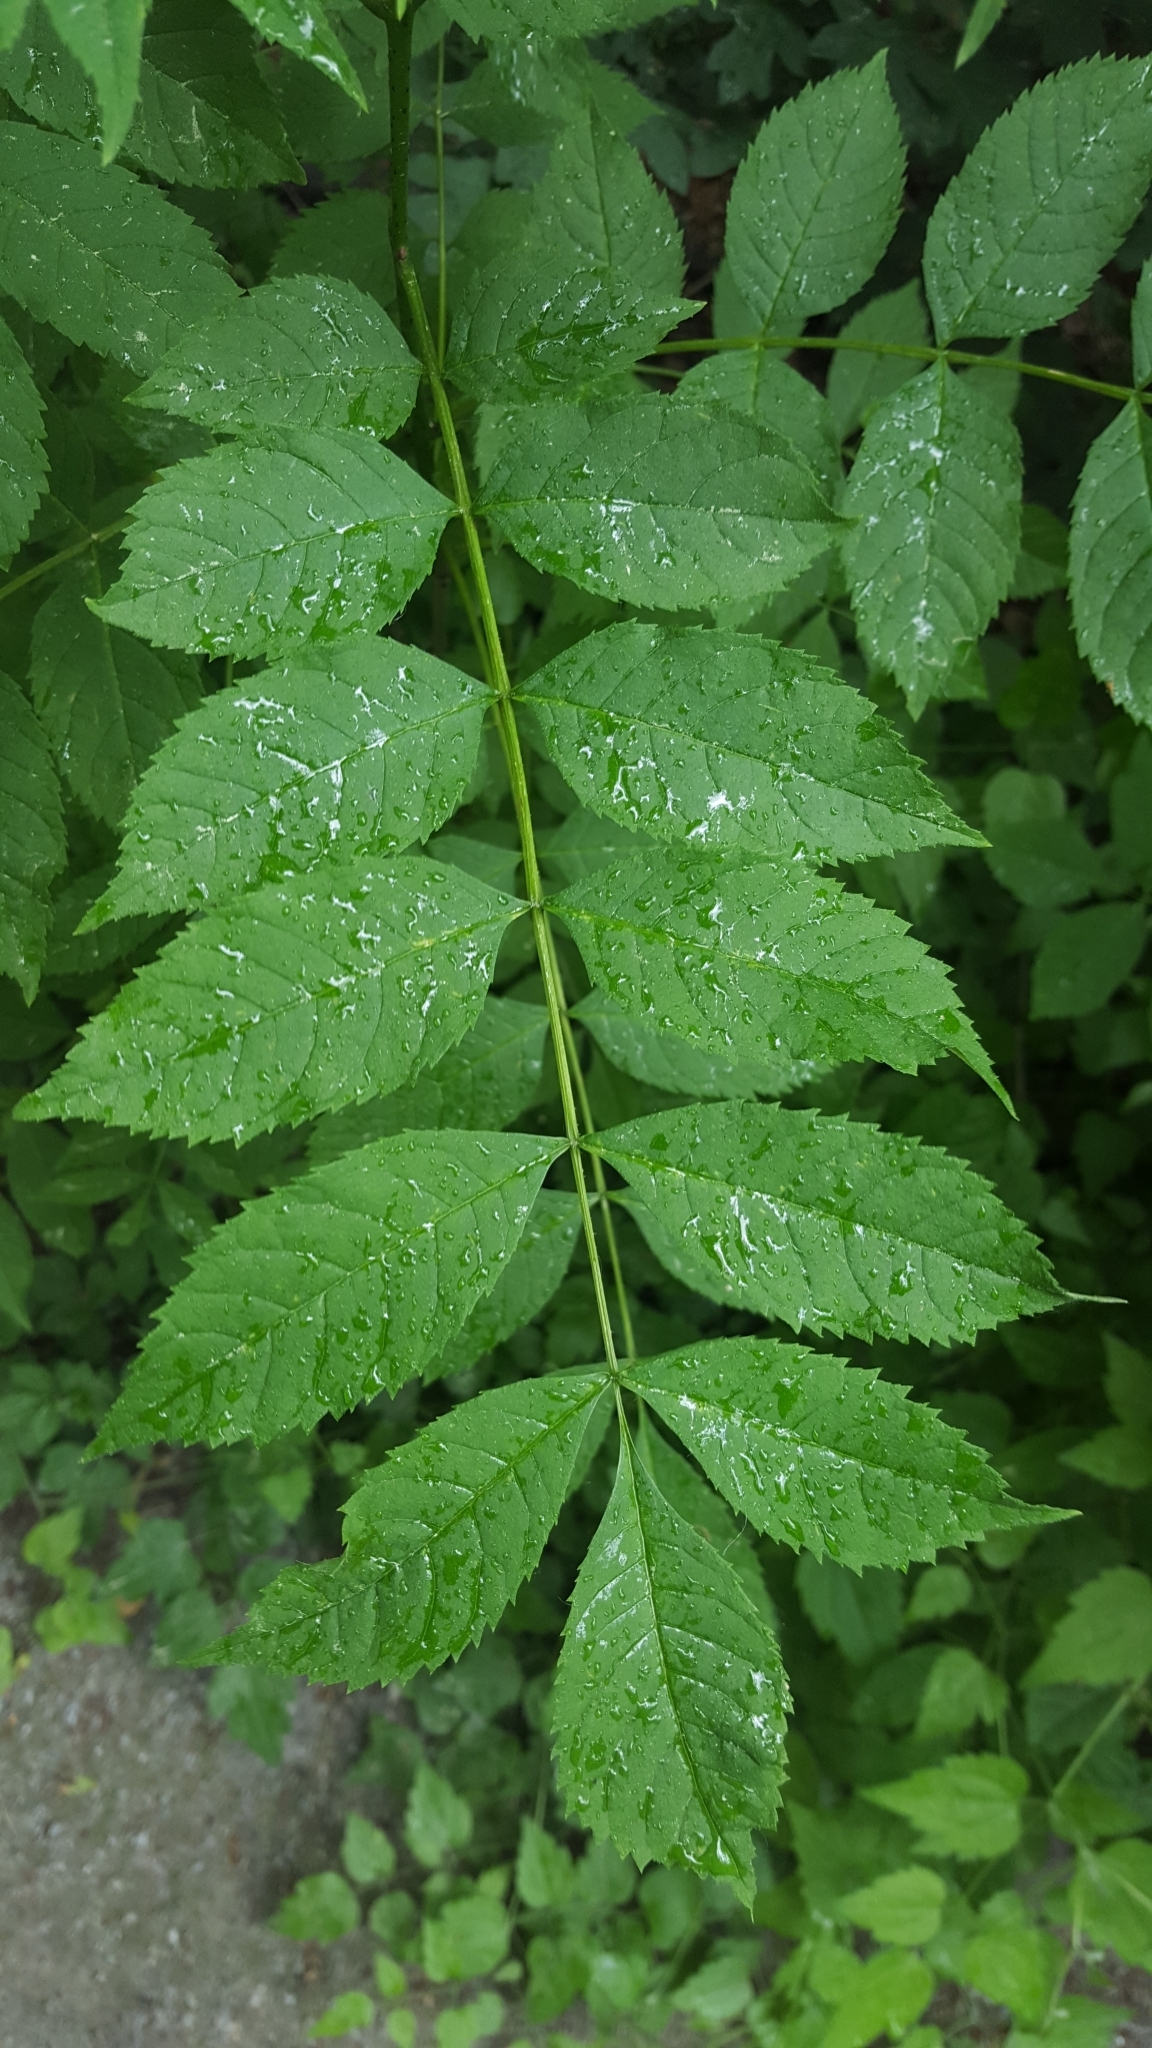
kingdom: Plantae
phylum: Tracheophyta
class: Magnoliopsida
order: Lamiales
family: Oleaceae
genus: Fraxinus
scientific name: Fraxinus excelsior
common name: European ash
